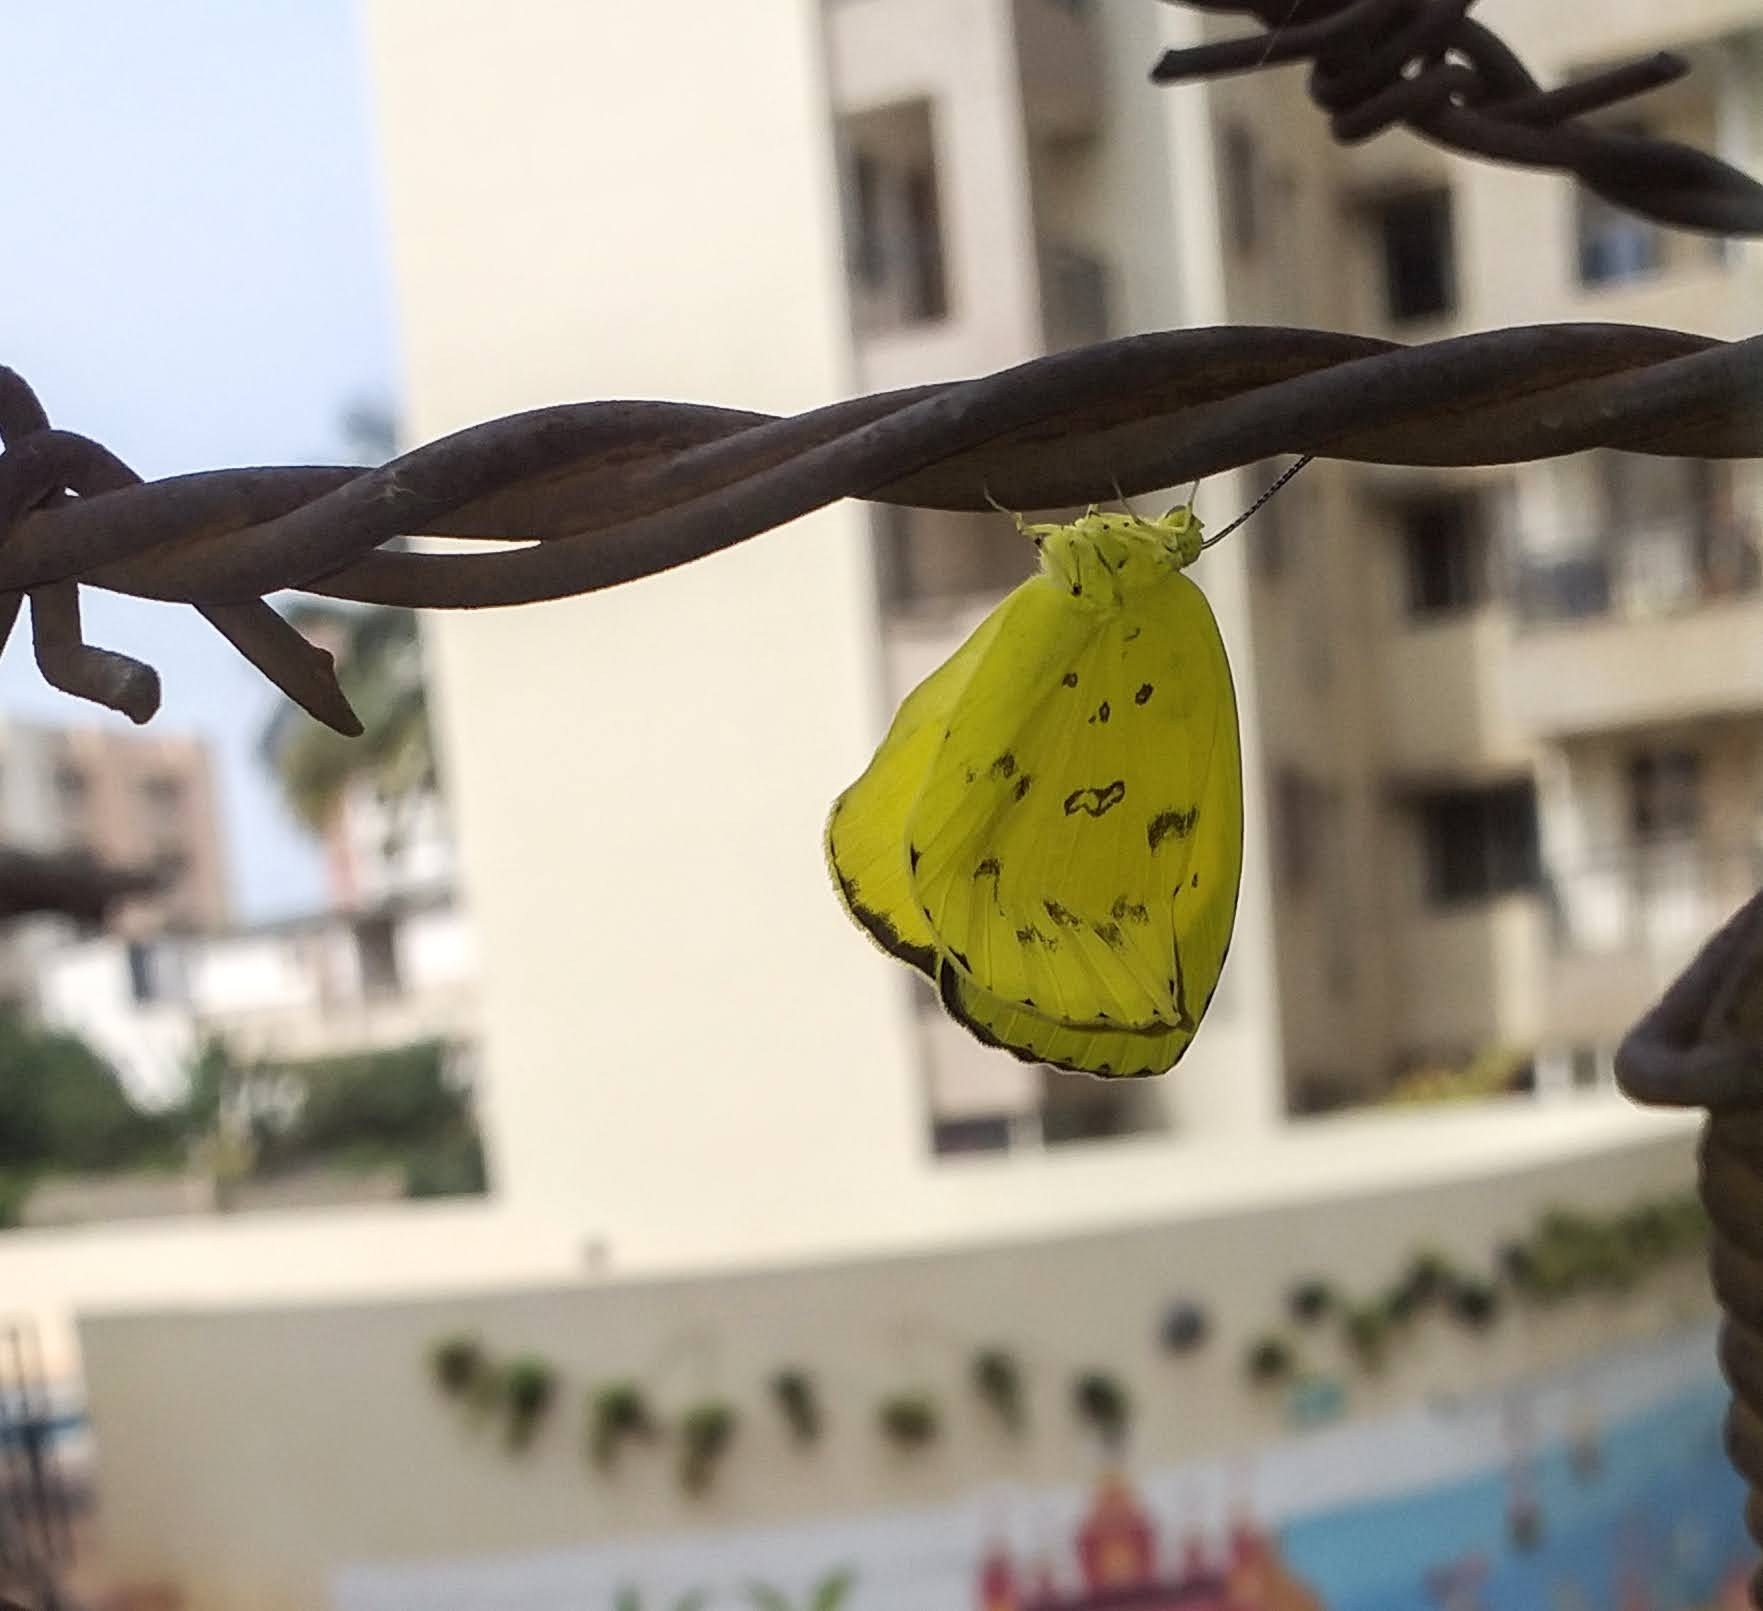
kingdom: Animalia
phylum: Arthropoda
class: Insecta
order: Lepidoptera
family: Pieridae
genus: Eurema
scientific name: Eurema blanda
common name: Three-spot grass yellow
